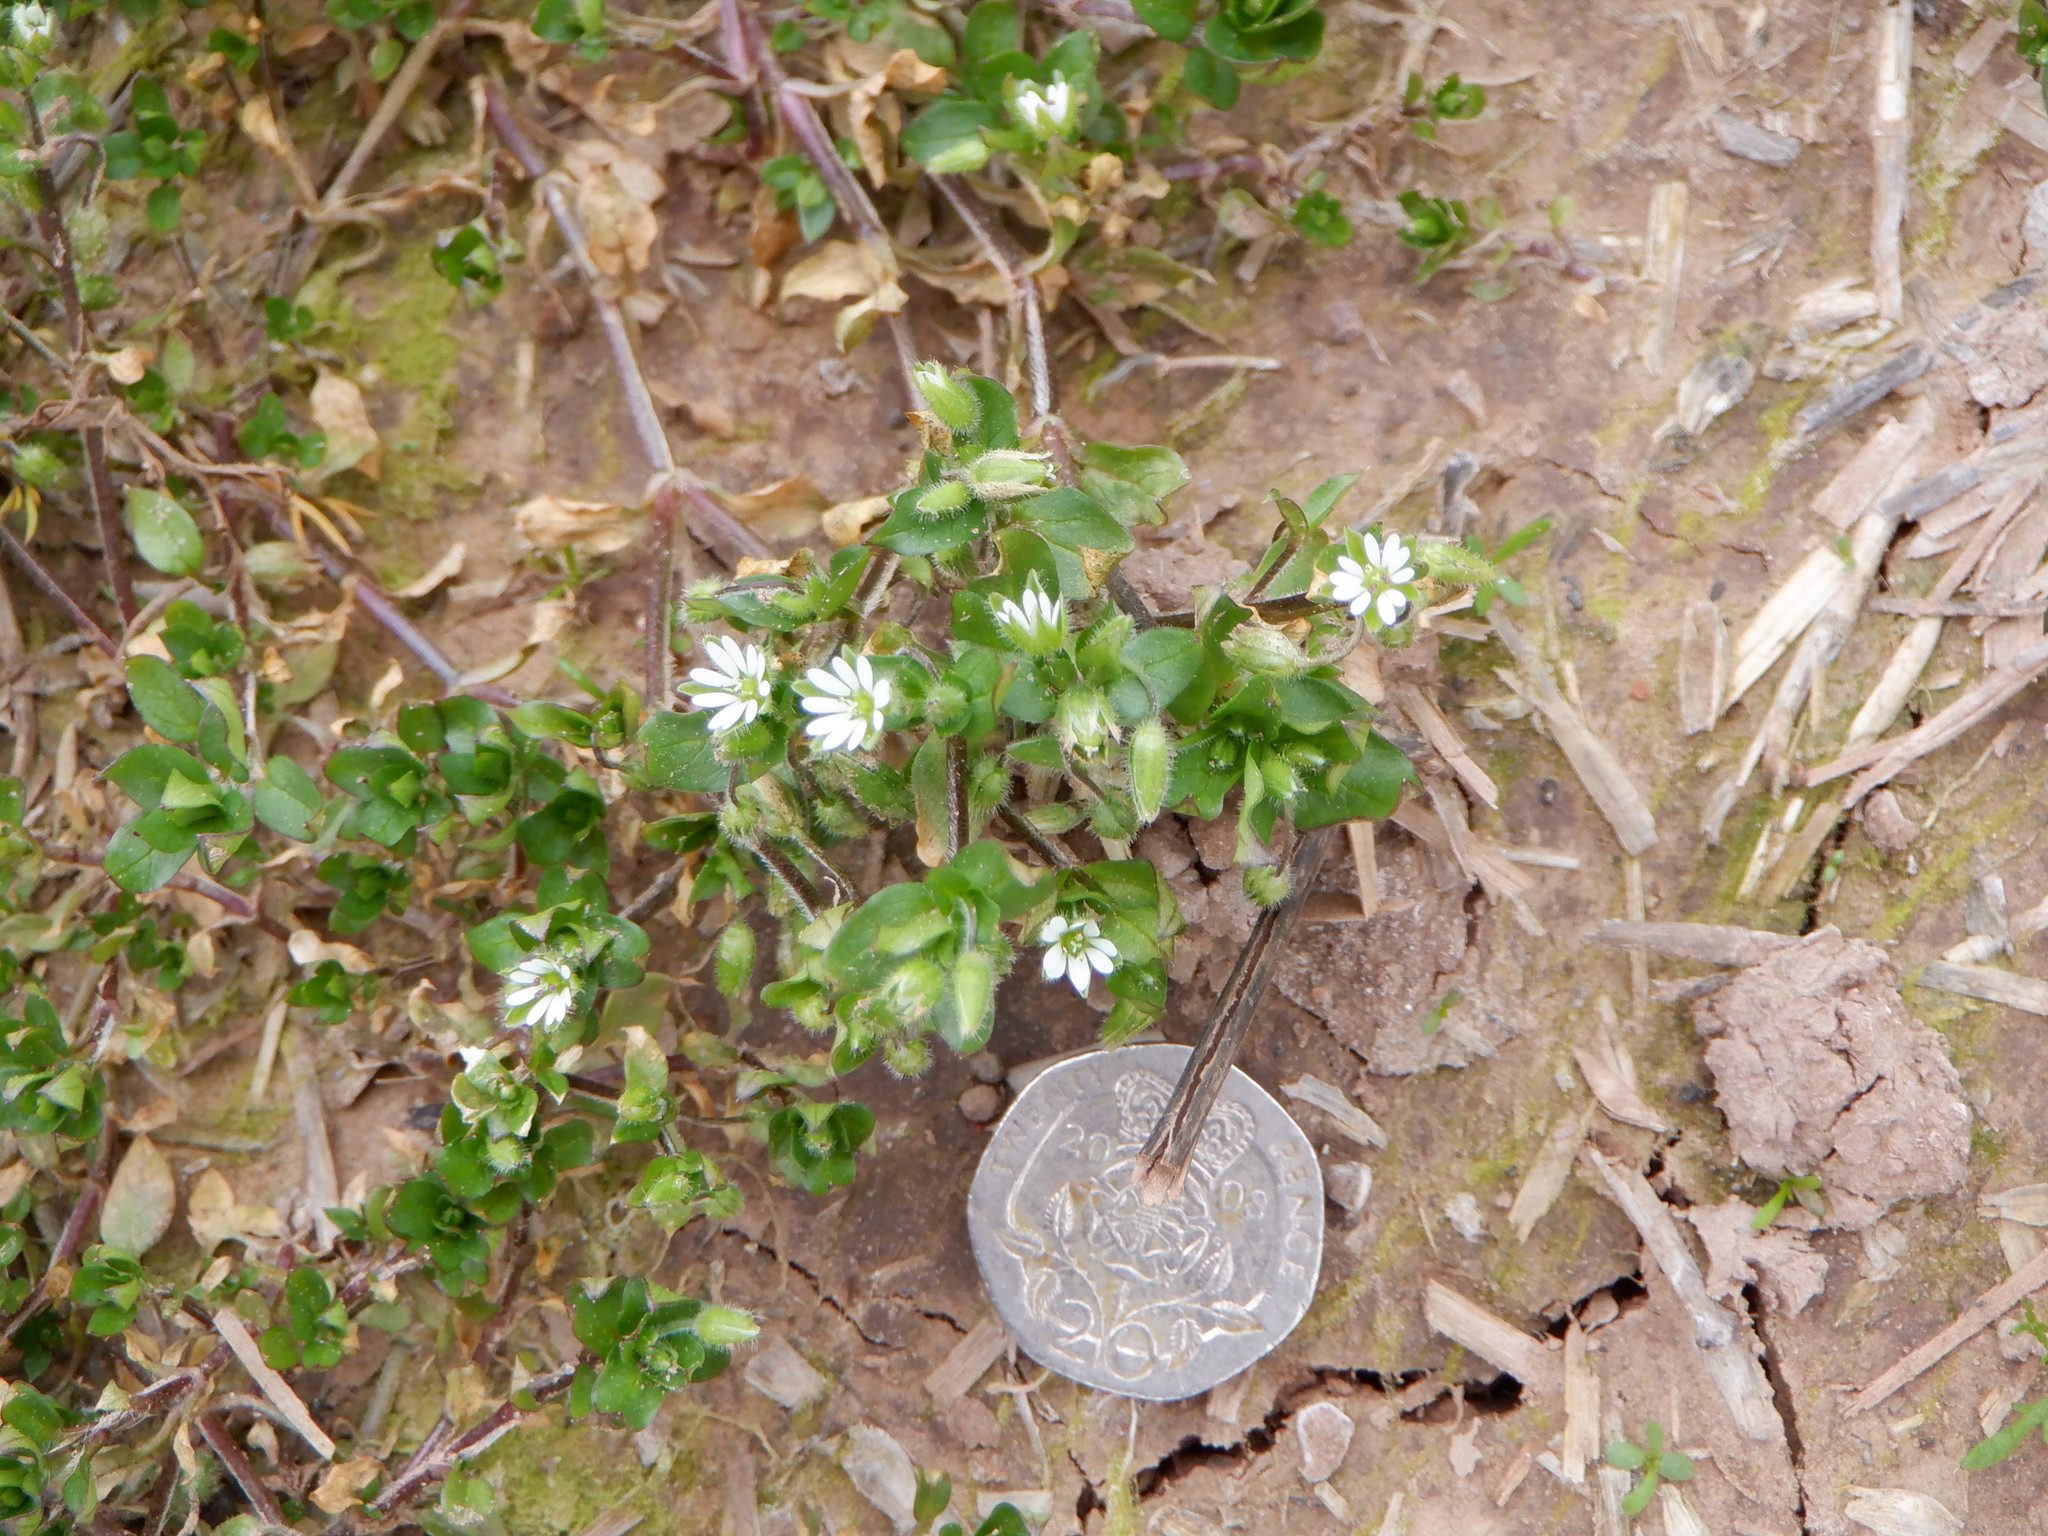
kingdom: Plantae
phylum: Tracheophyta
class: Magnoliopsida
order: Caryophyllales
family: Caryophyllaceae
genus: Stellaria
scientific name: Stellaria media
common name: Common chickweed
